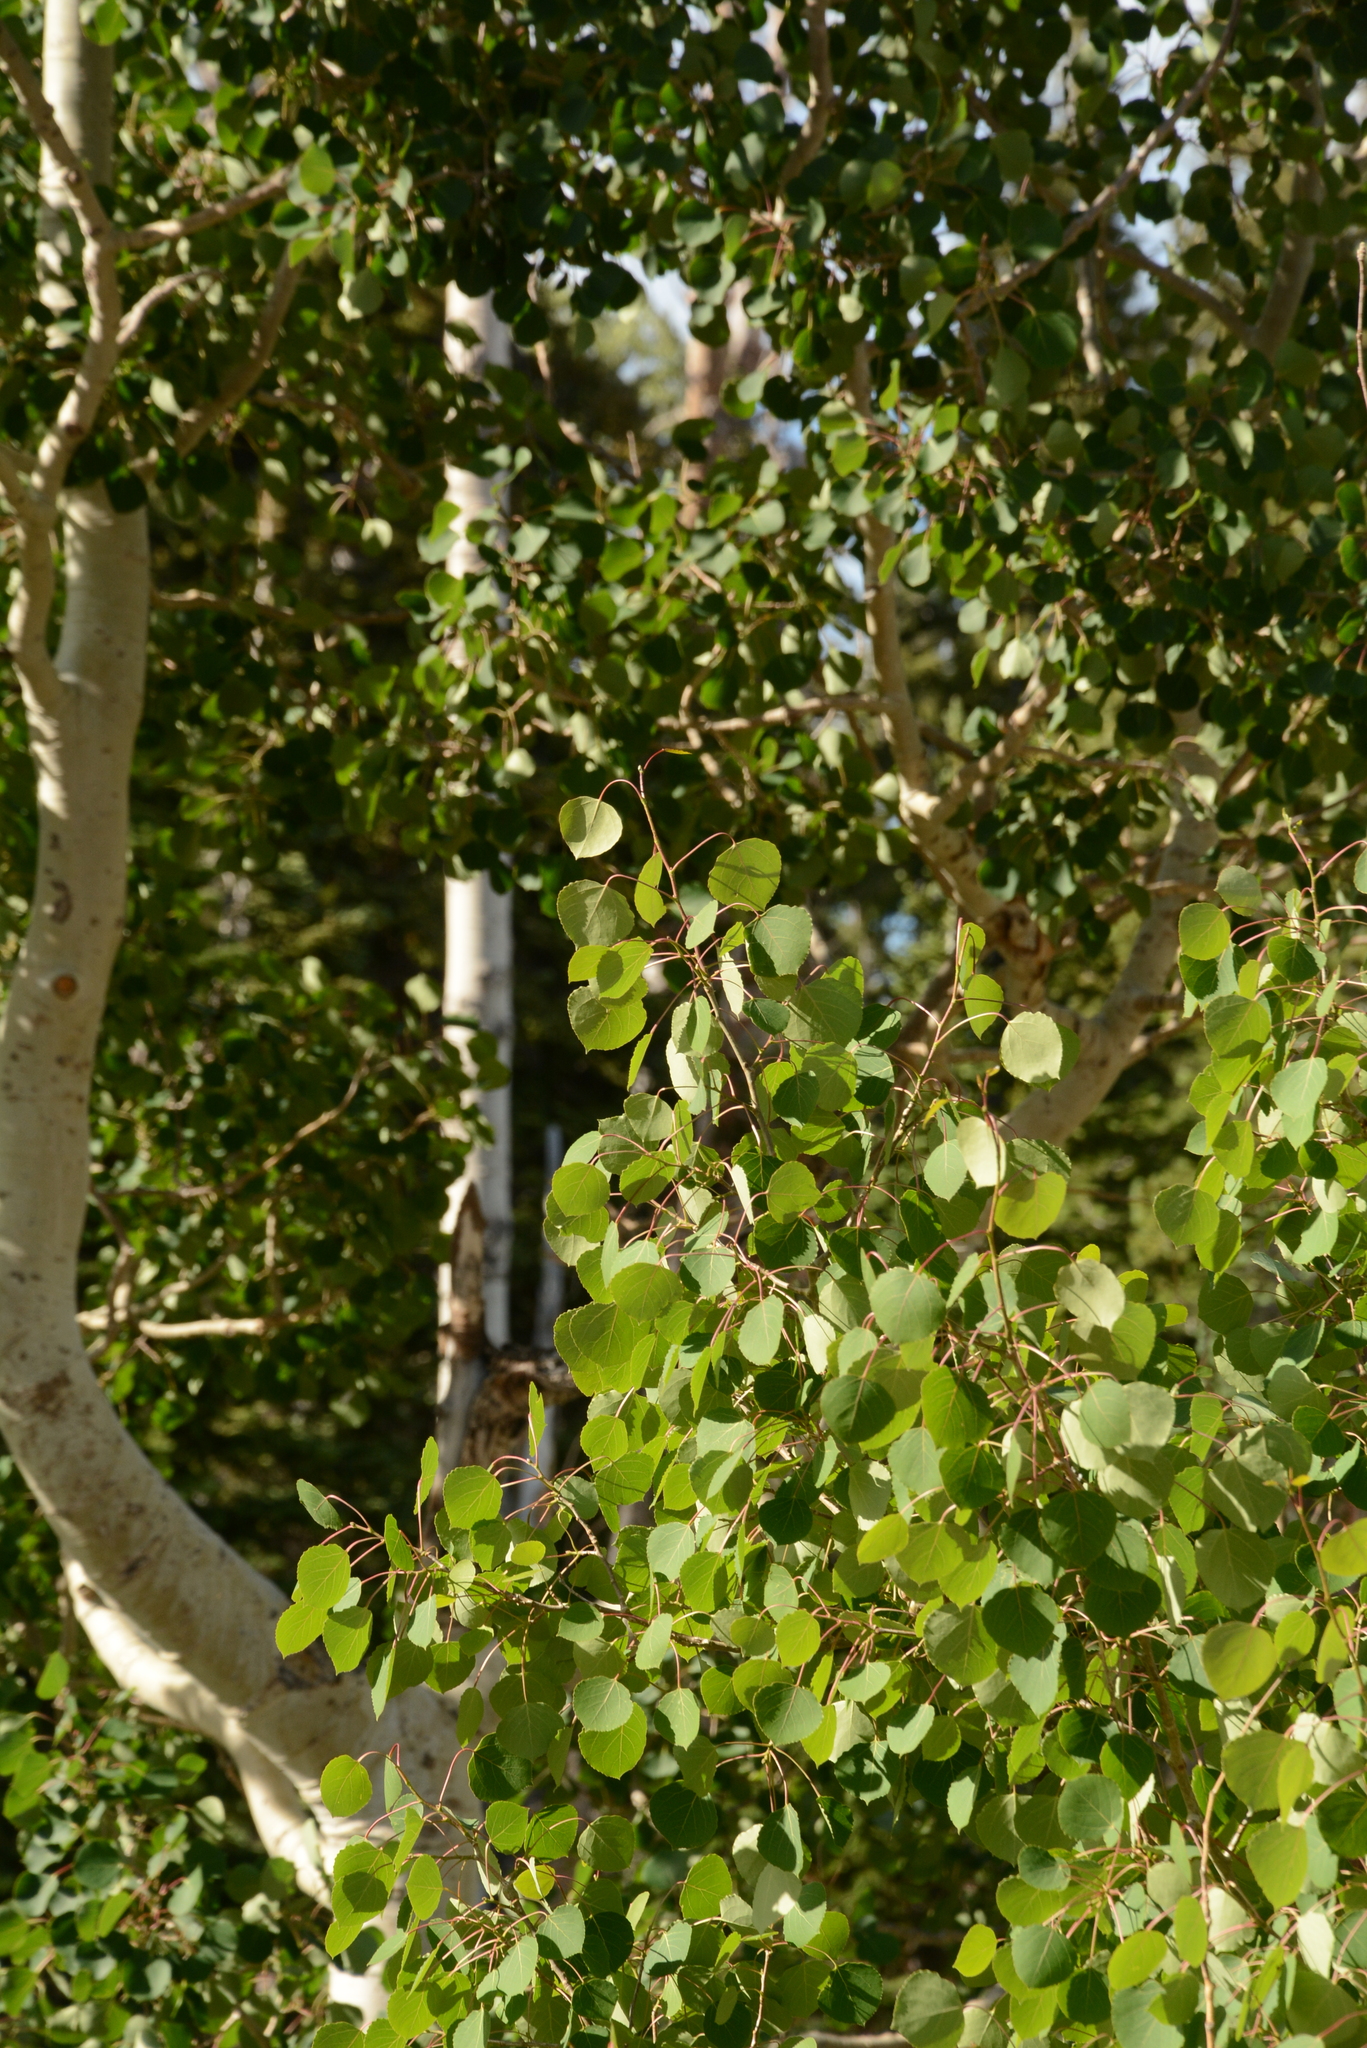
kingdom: Plantae
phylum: Tracheophyta
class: Magnoliopsida
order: Malpighiales
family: Salicaceae
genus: Populus
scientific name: Populus tremuloides
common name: Quaking aspen
